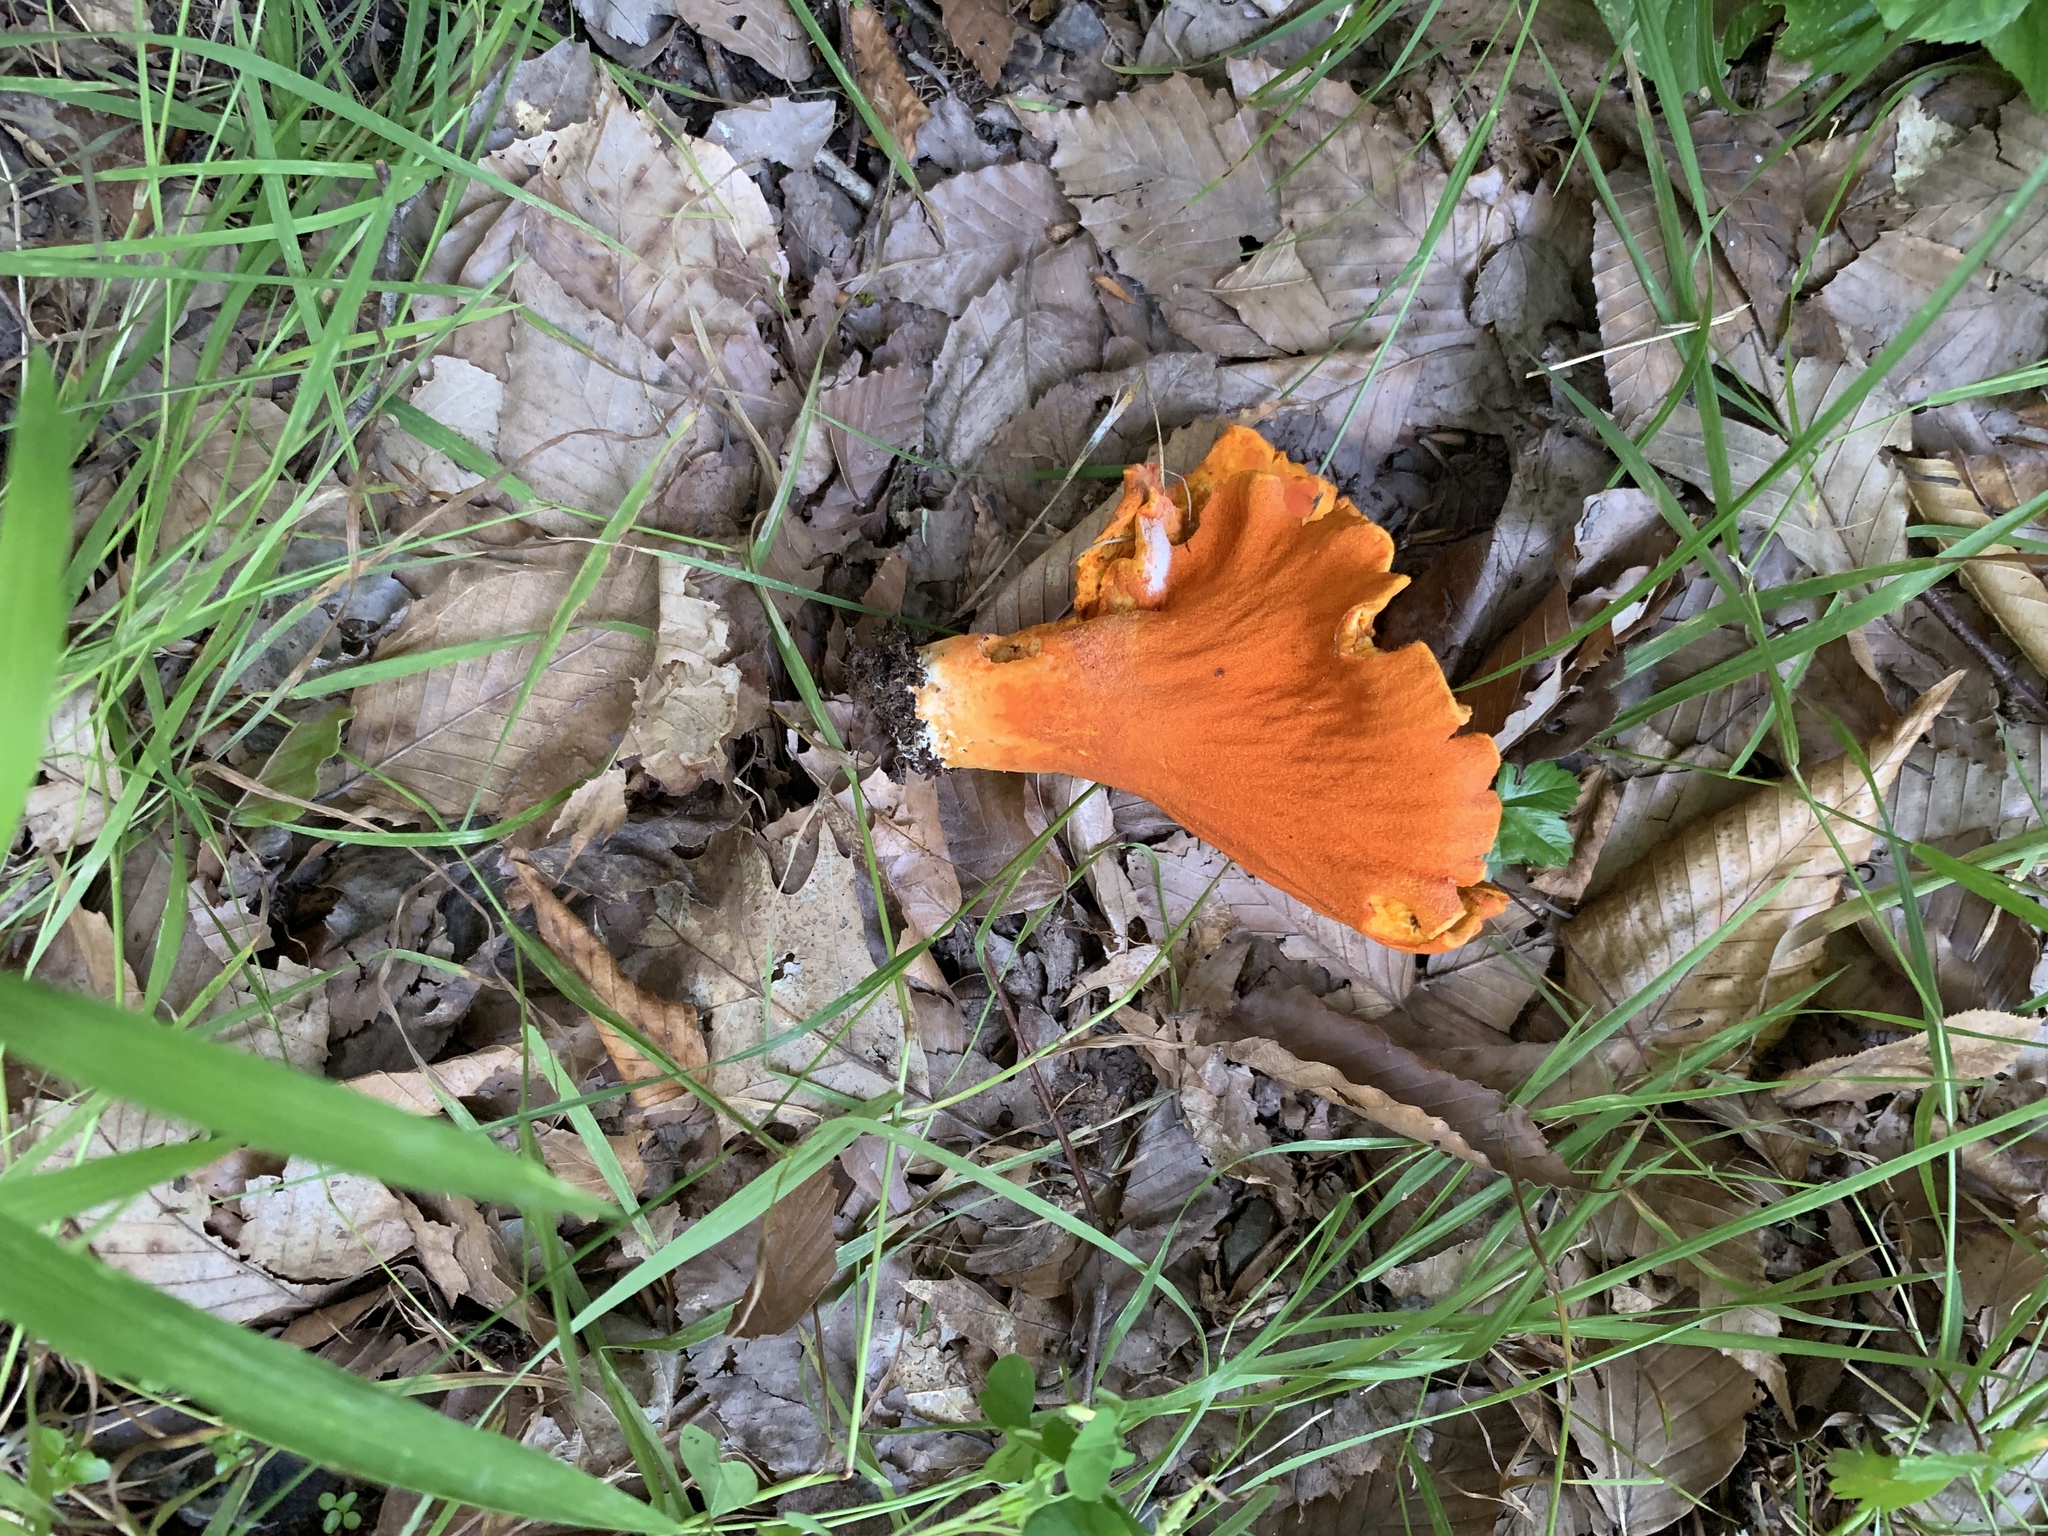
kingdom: Fungi
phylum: Ascomycota
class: Sordariomycetes
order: Hypocreales
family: Hypocreaceae
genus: Hypomyces
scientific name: Hypomyces lactifluorum
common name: Lobster mushroom
